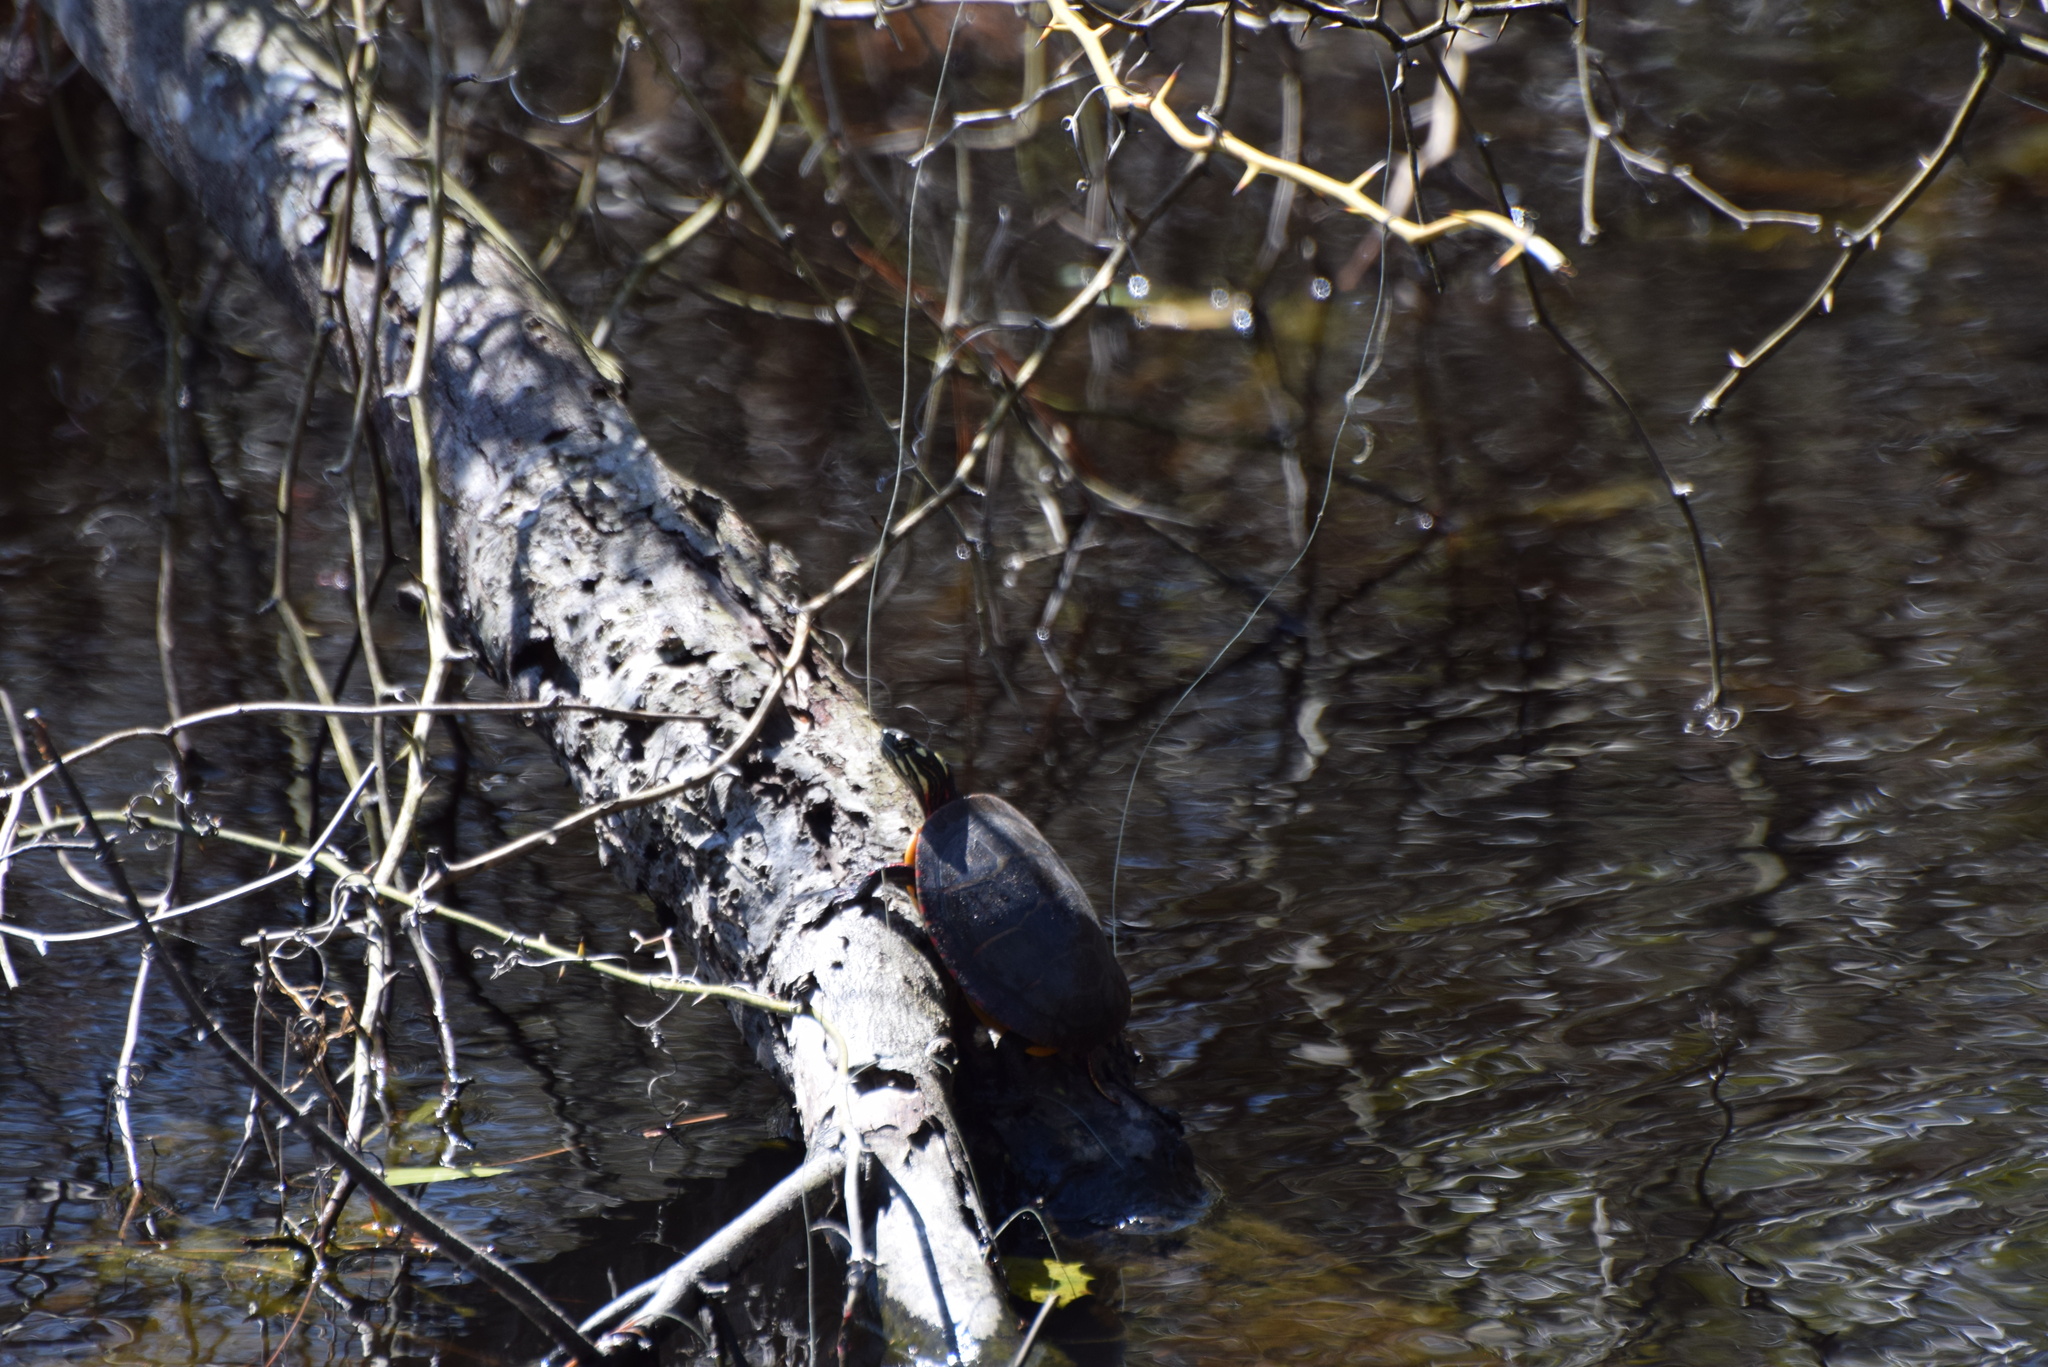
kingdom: Animalia
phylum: Chordata
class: Testudines
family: Emydidae
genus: Chrysemys
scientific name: Chrysemys picta
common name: Painted turtle
